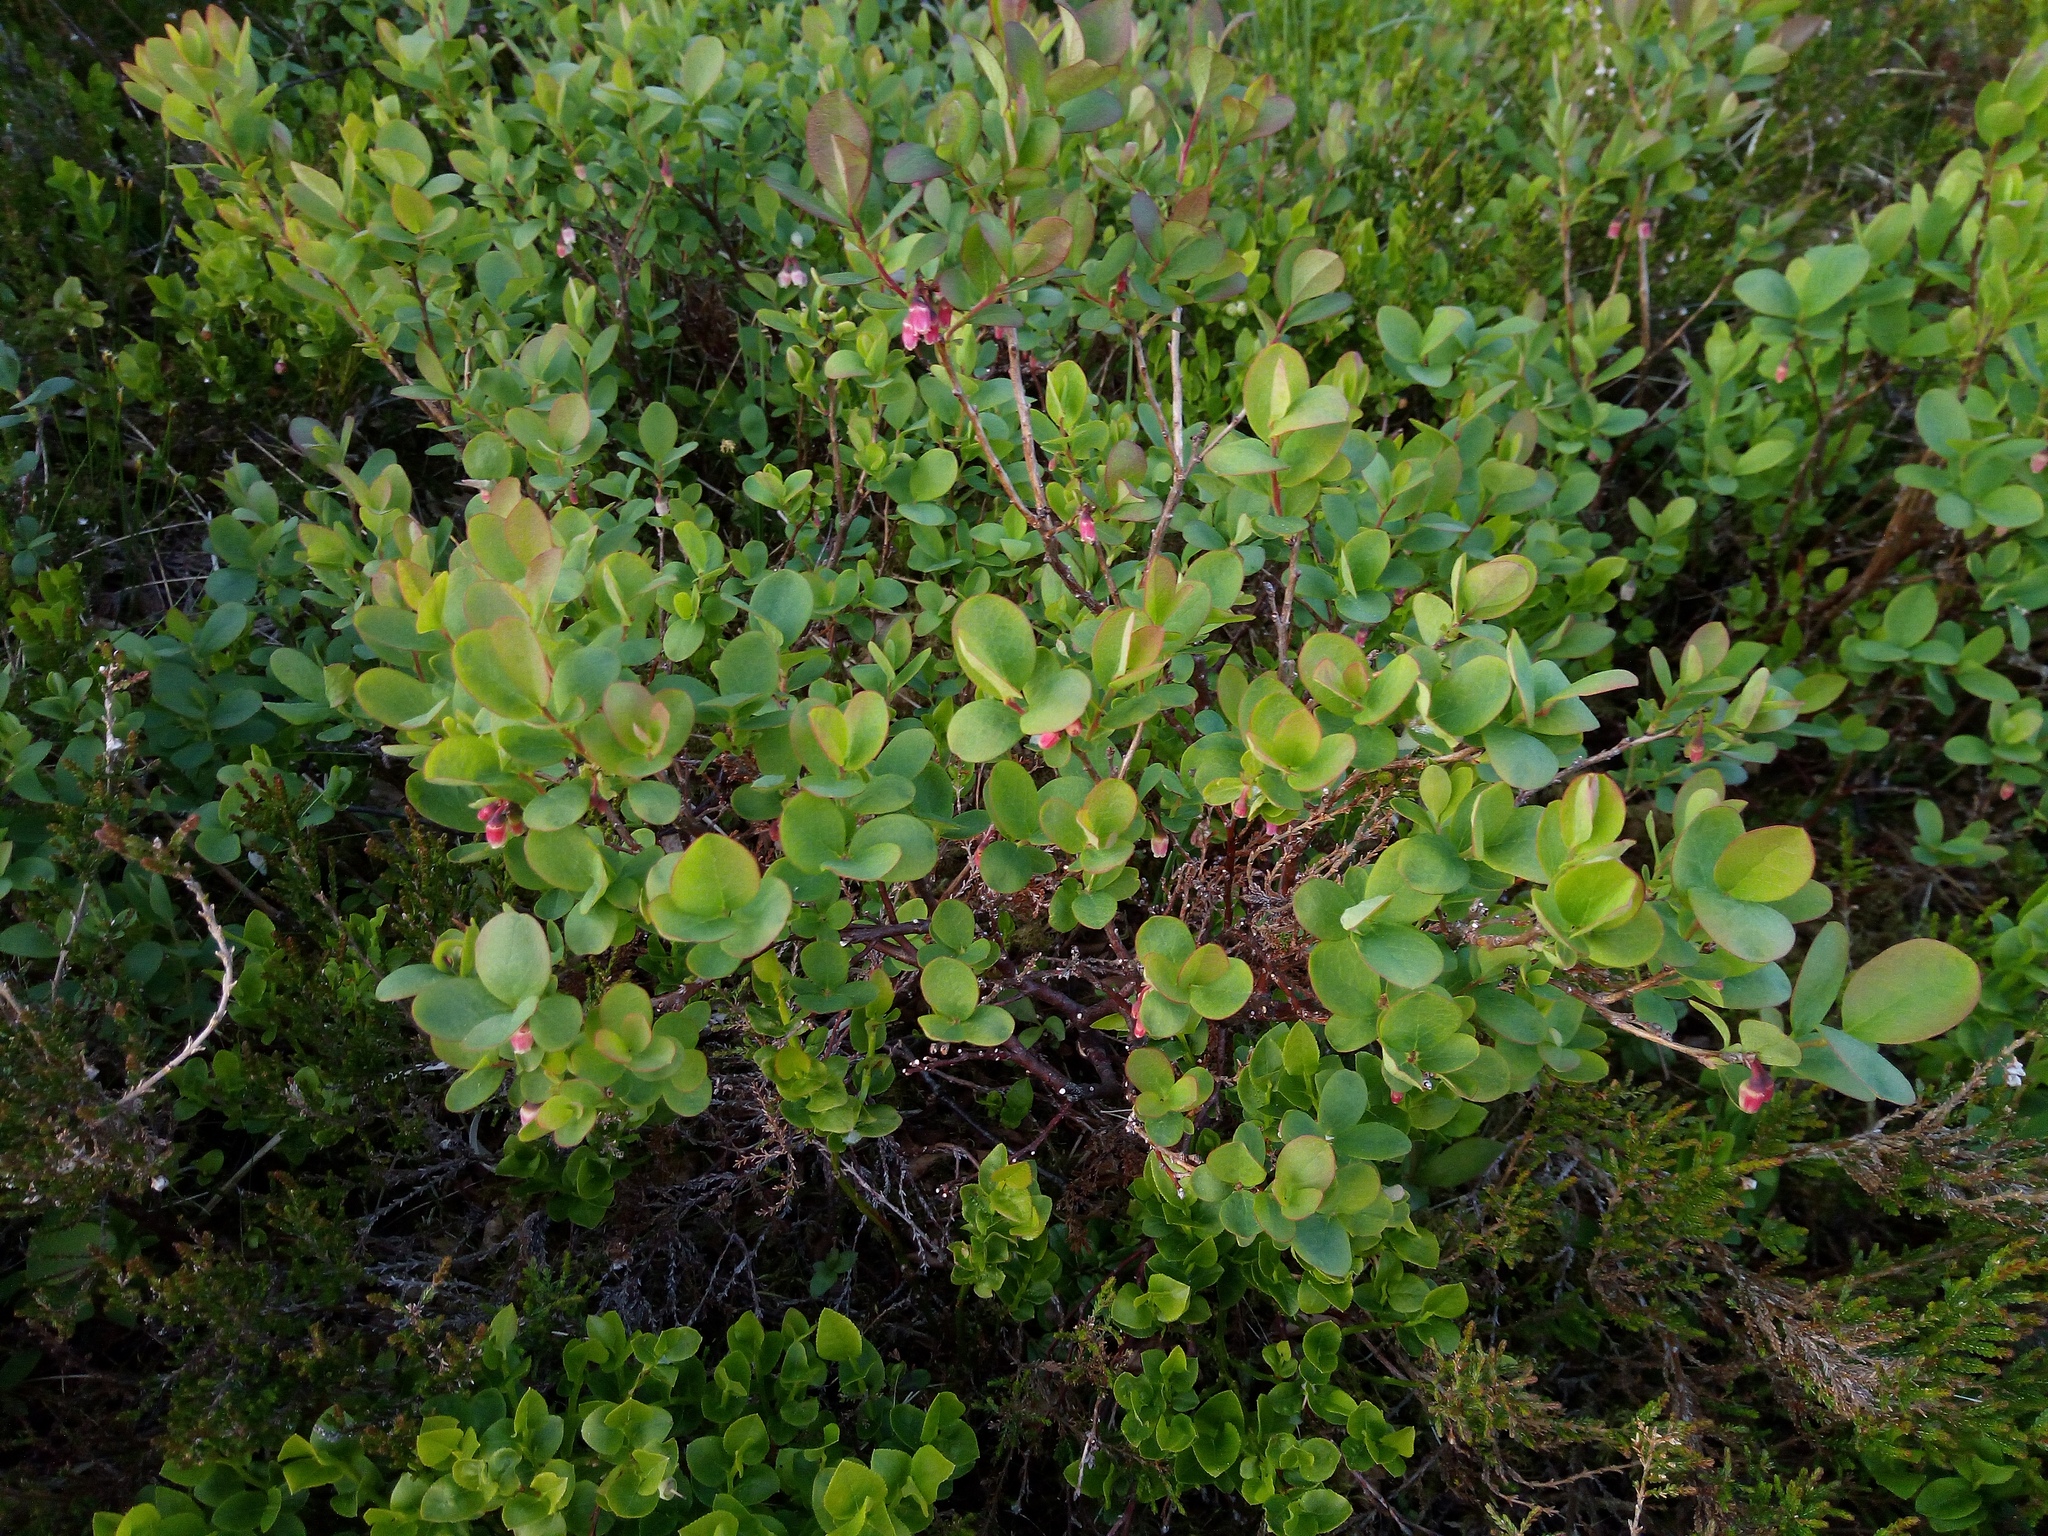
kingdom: Plantae
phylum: Tracheophyta
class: Magnoliopsida
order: Ericales
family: Ericaceae
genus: Vaccinium
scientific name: Vaccinium uliginosum
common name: Bog bilberry
